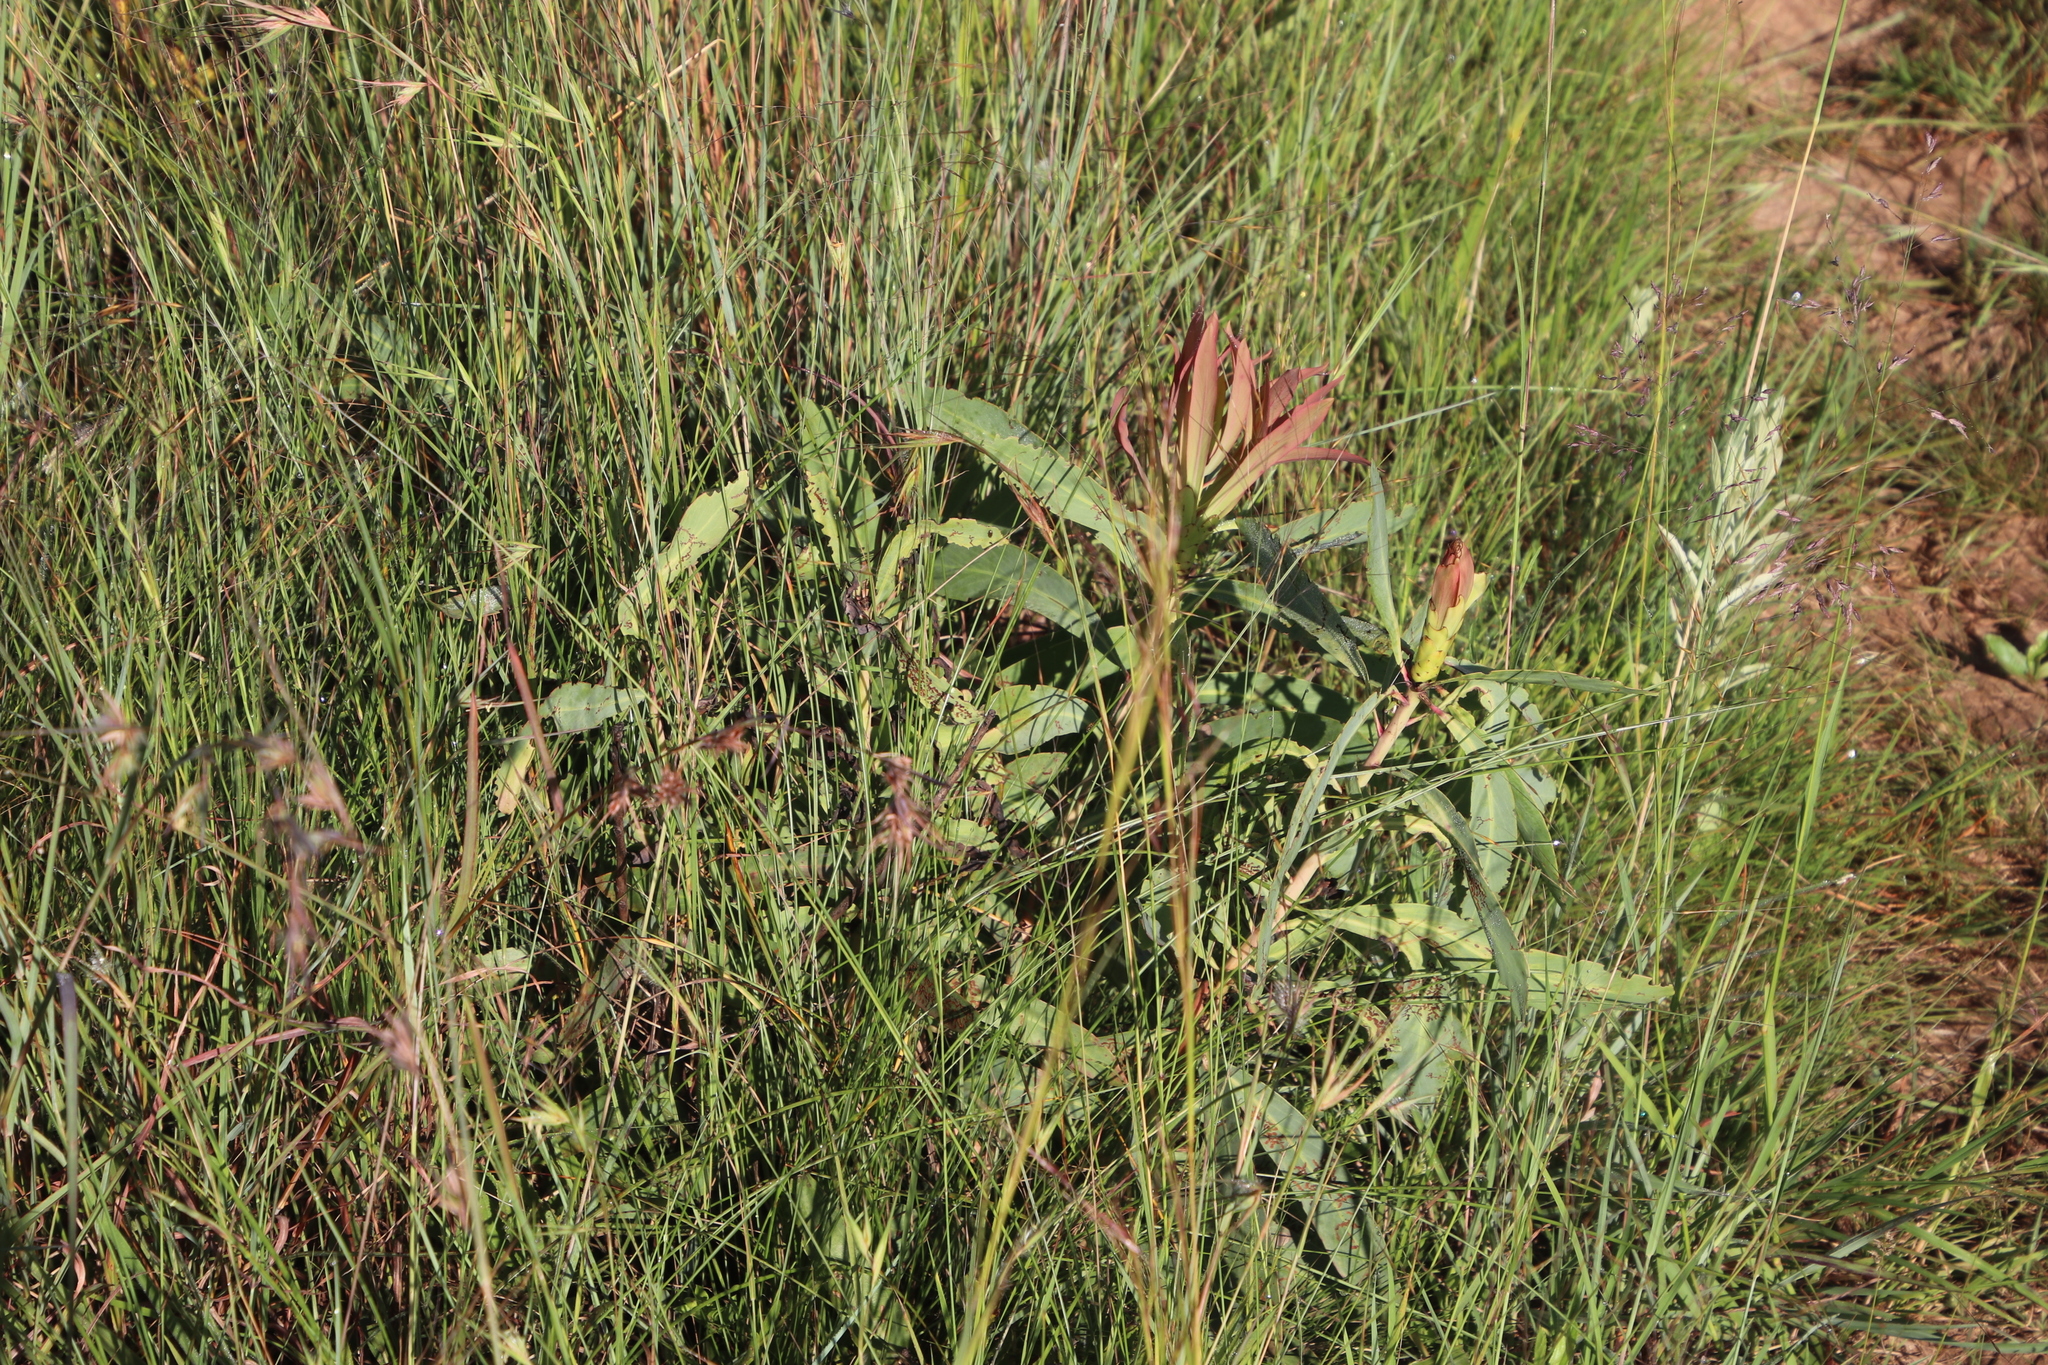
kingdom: Plantae
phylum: Tracheophyta
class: Magnoliopsida
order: Proteales
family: Proteaceae
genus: Protea
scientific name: Protea caffra
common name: Common sugarbush
